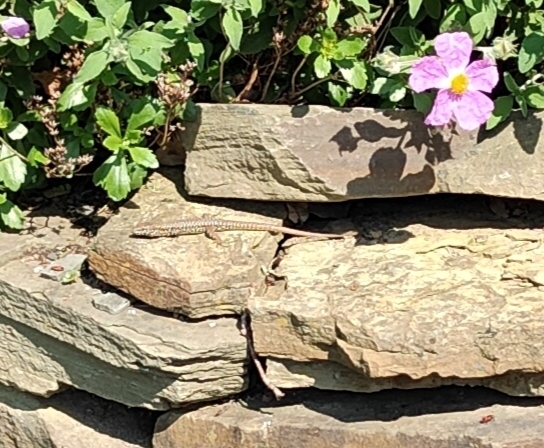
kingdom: Animalia
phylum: Chordata
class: Squamata
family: Lacertidae
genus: Podarcis
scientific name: Podarcis muralis
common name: Common wall lizard
